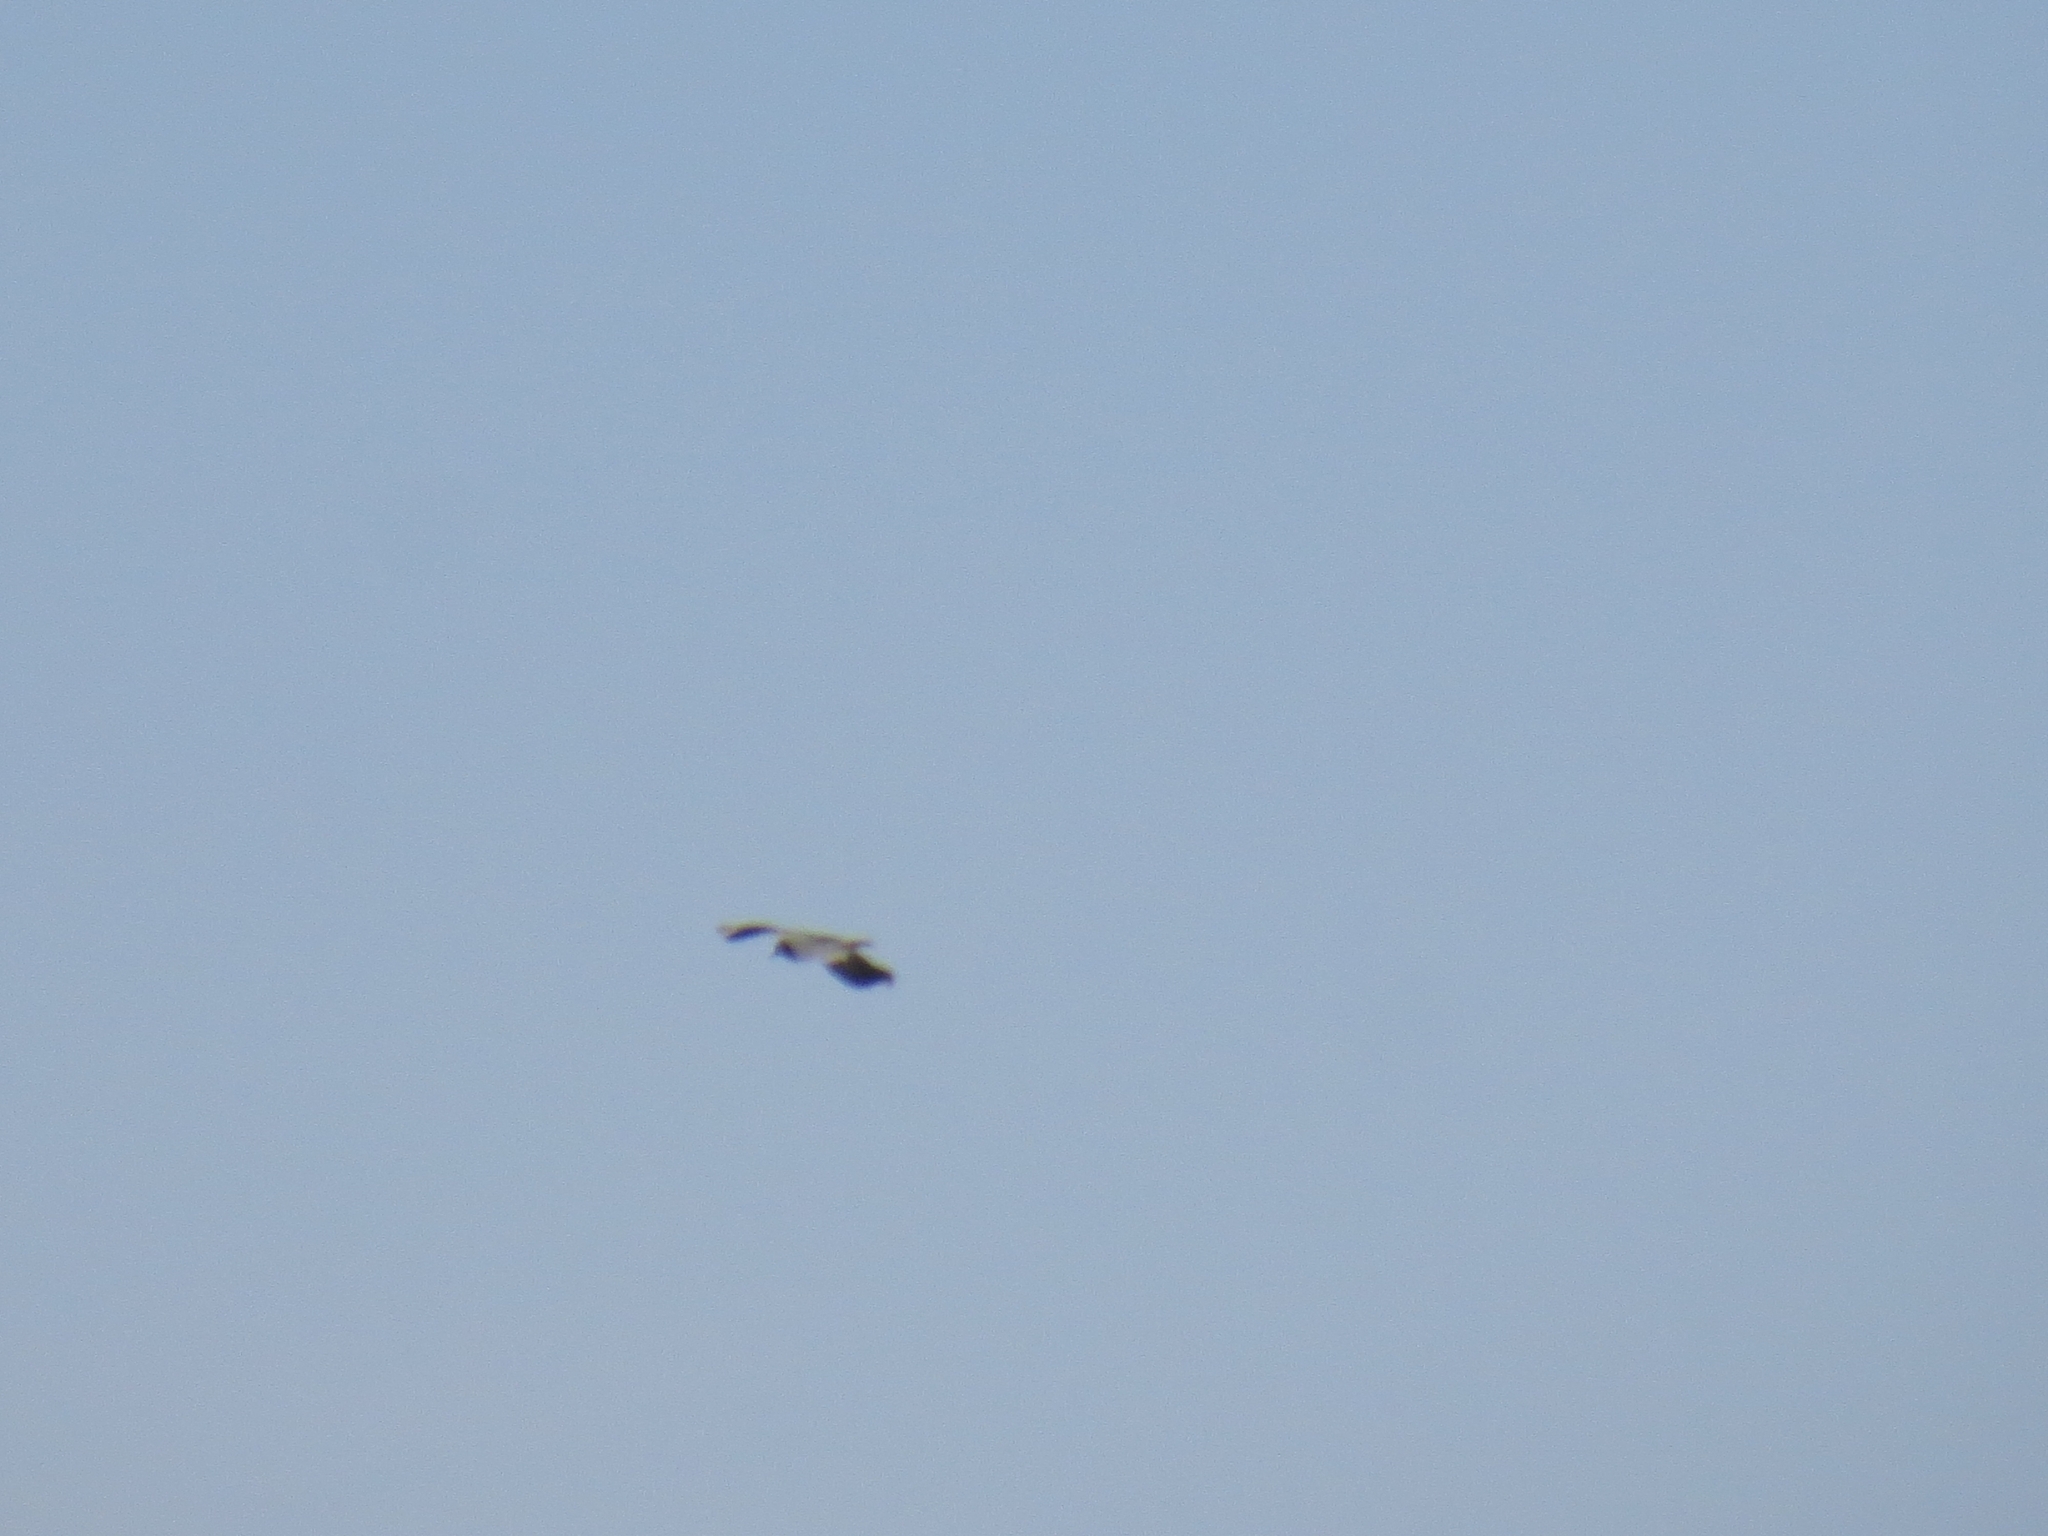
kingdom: Animalia
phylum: Chordata
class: Aves
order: Charadriiformes
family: Charadriidae
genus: Vanellus
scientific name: Vanellus vanellus
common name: Northern lapwing
